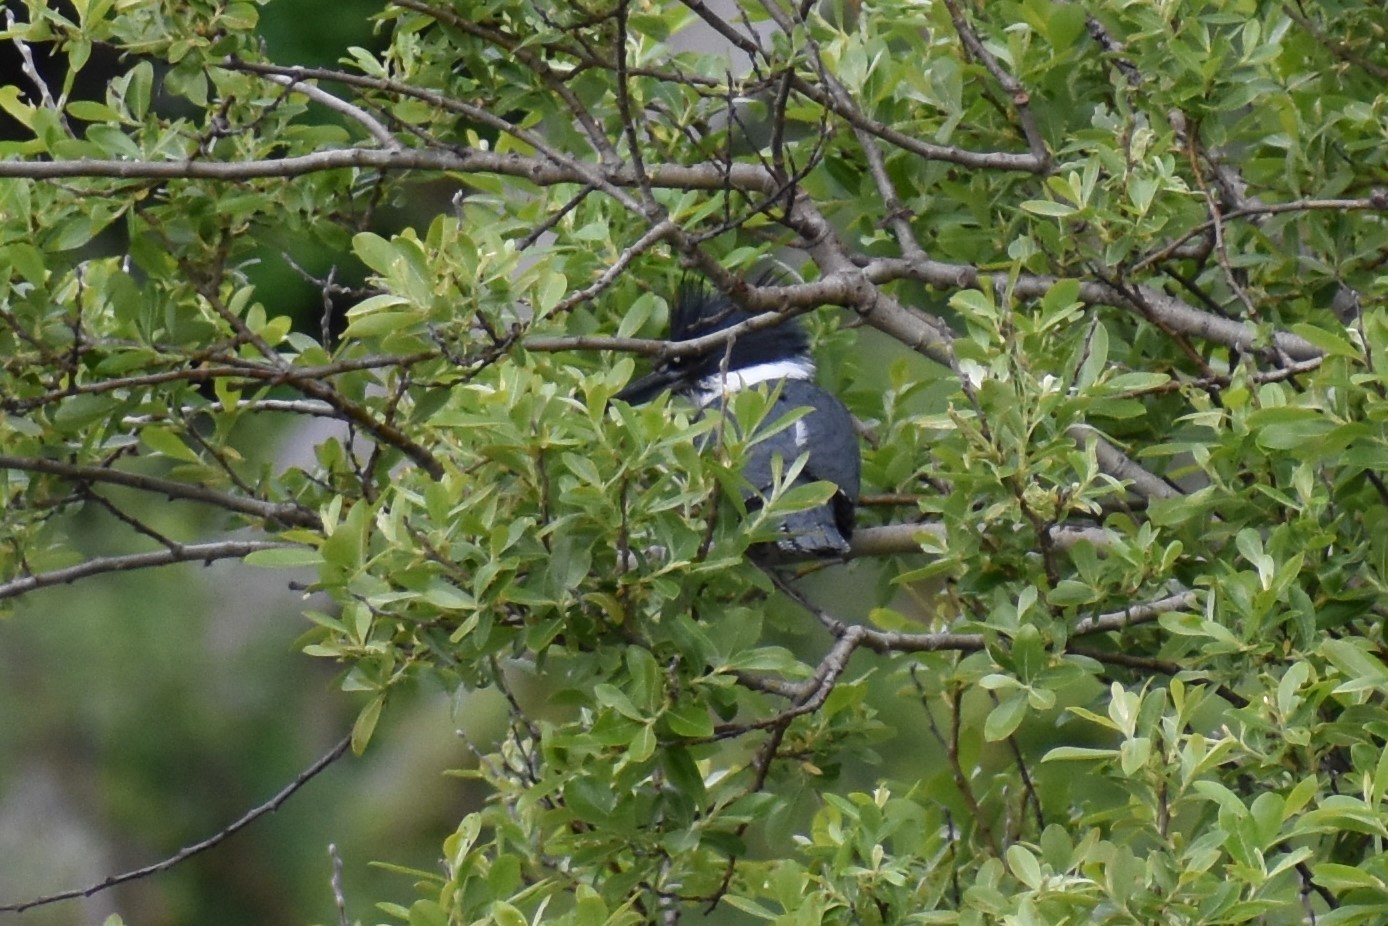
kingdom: Animalia
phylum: Chordata
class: Aves
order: Coraciiformes
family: Alcedinidae
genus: Megaceryle
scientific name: Megaceryle alcyon
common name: Belted kingfisher
